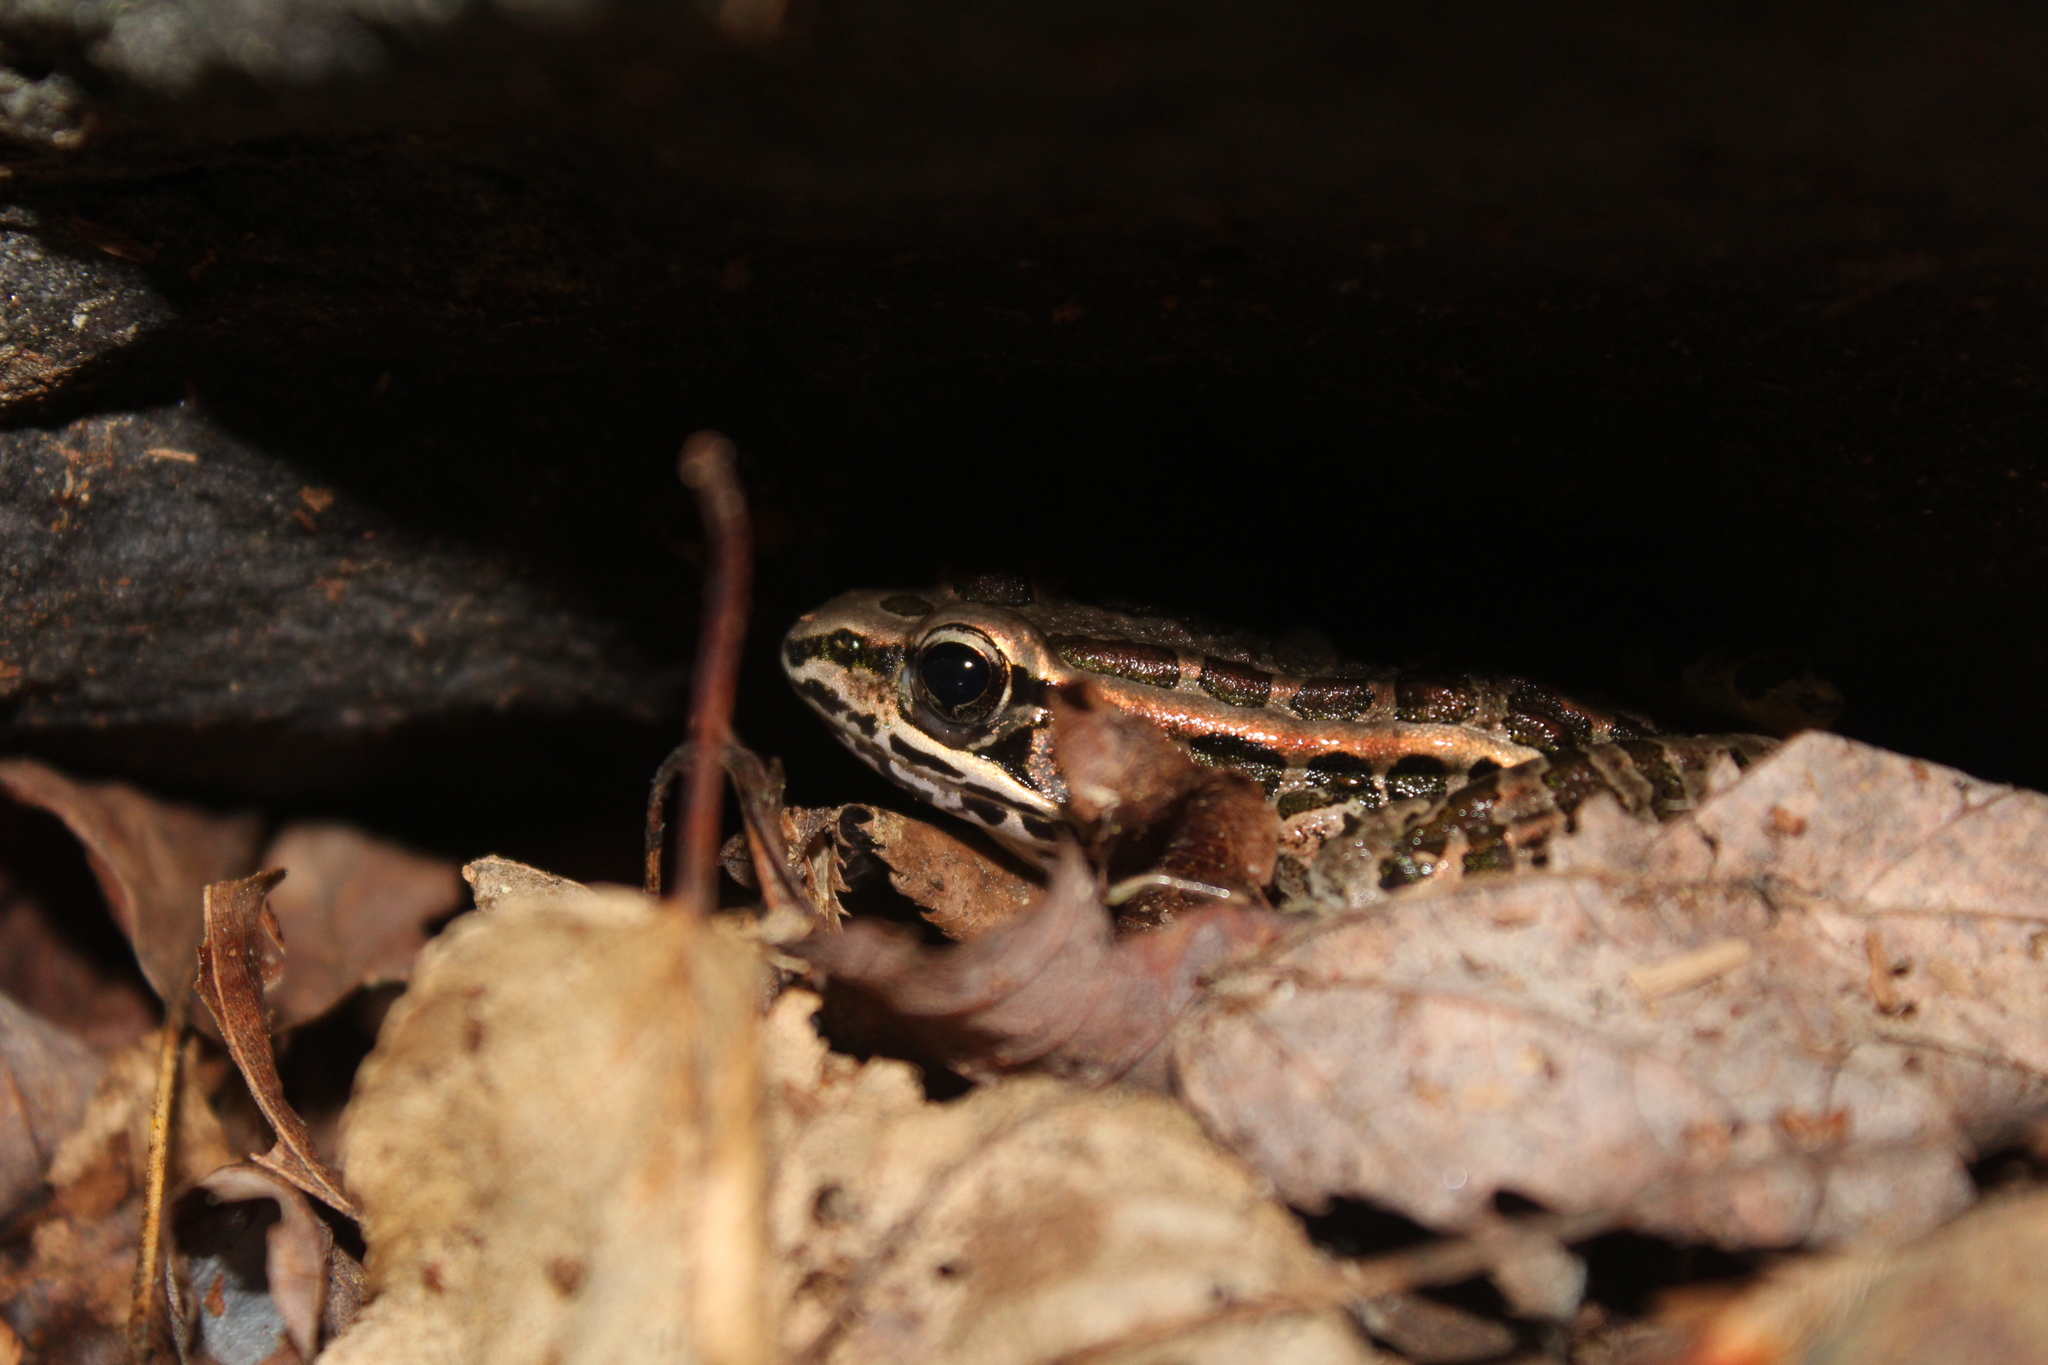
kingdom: Animalia
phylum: Chordata
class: Amphibia
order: Anura
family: Ranidae
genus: Lithobates
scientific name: Lithobates palustris
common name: Pickerel frog
